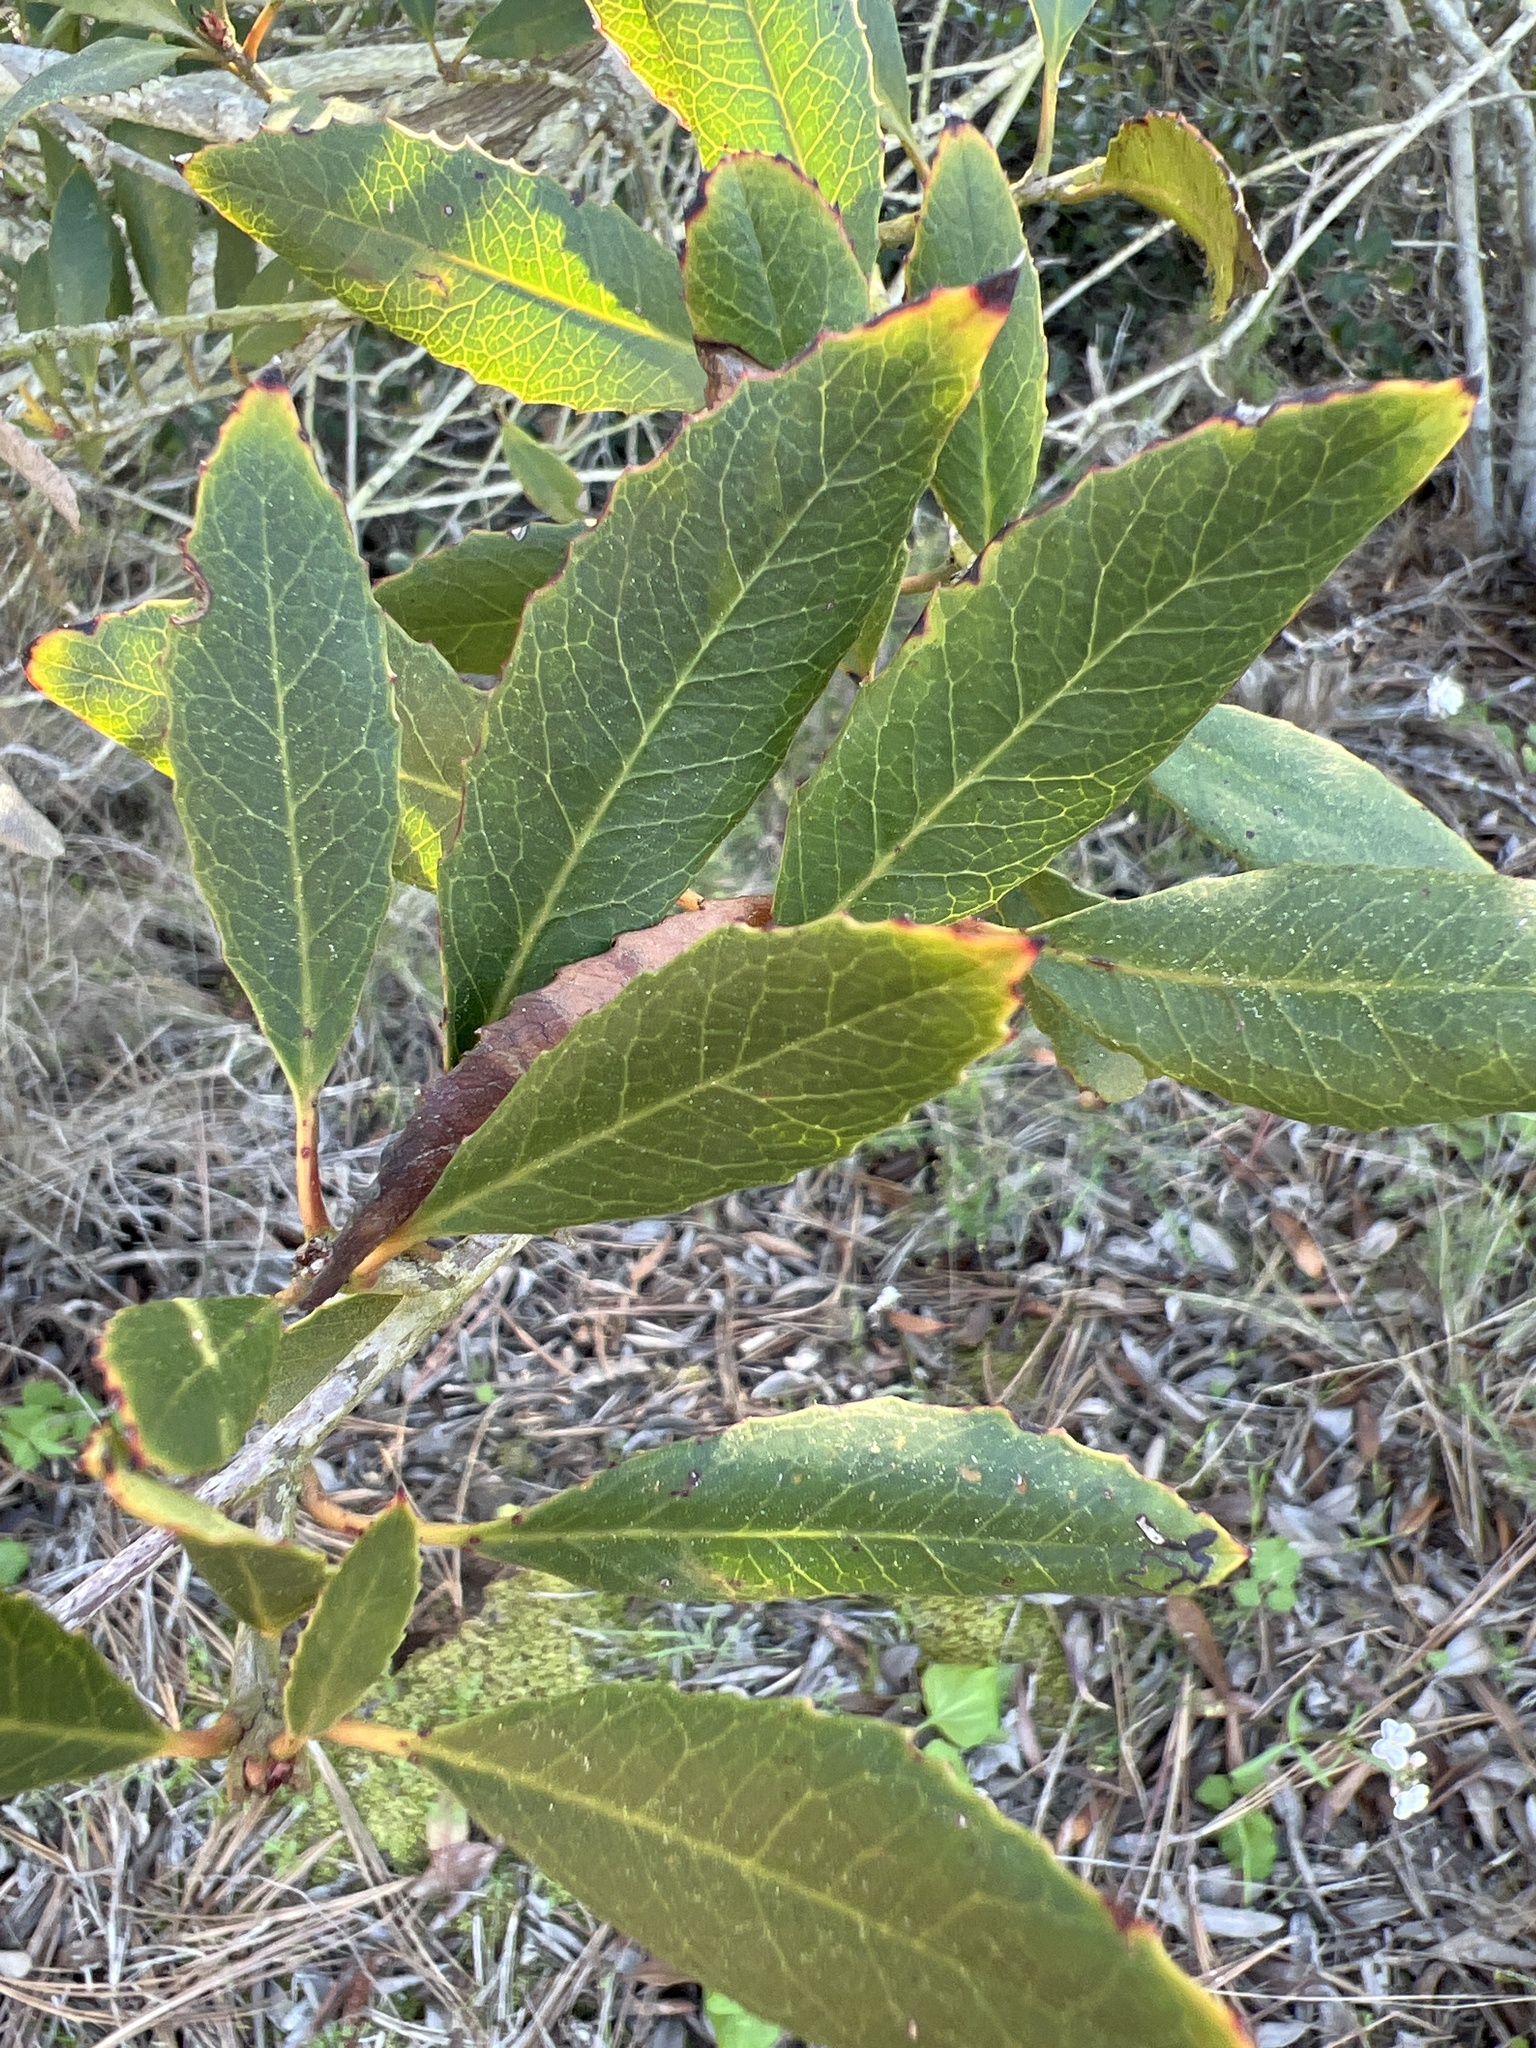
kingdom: Plantae
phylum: Tracheophyta
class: Magnoliopsida
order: Rosales
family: Rosaceae
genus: Heteromeles
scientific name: Heteromeles arbutifolia
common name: California-holly
